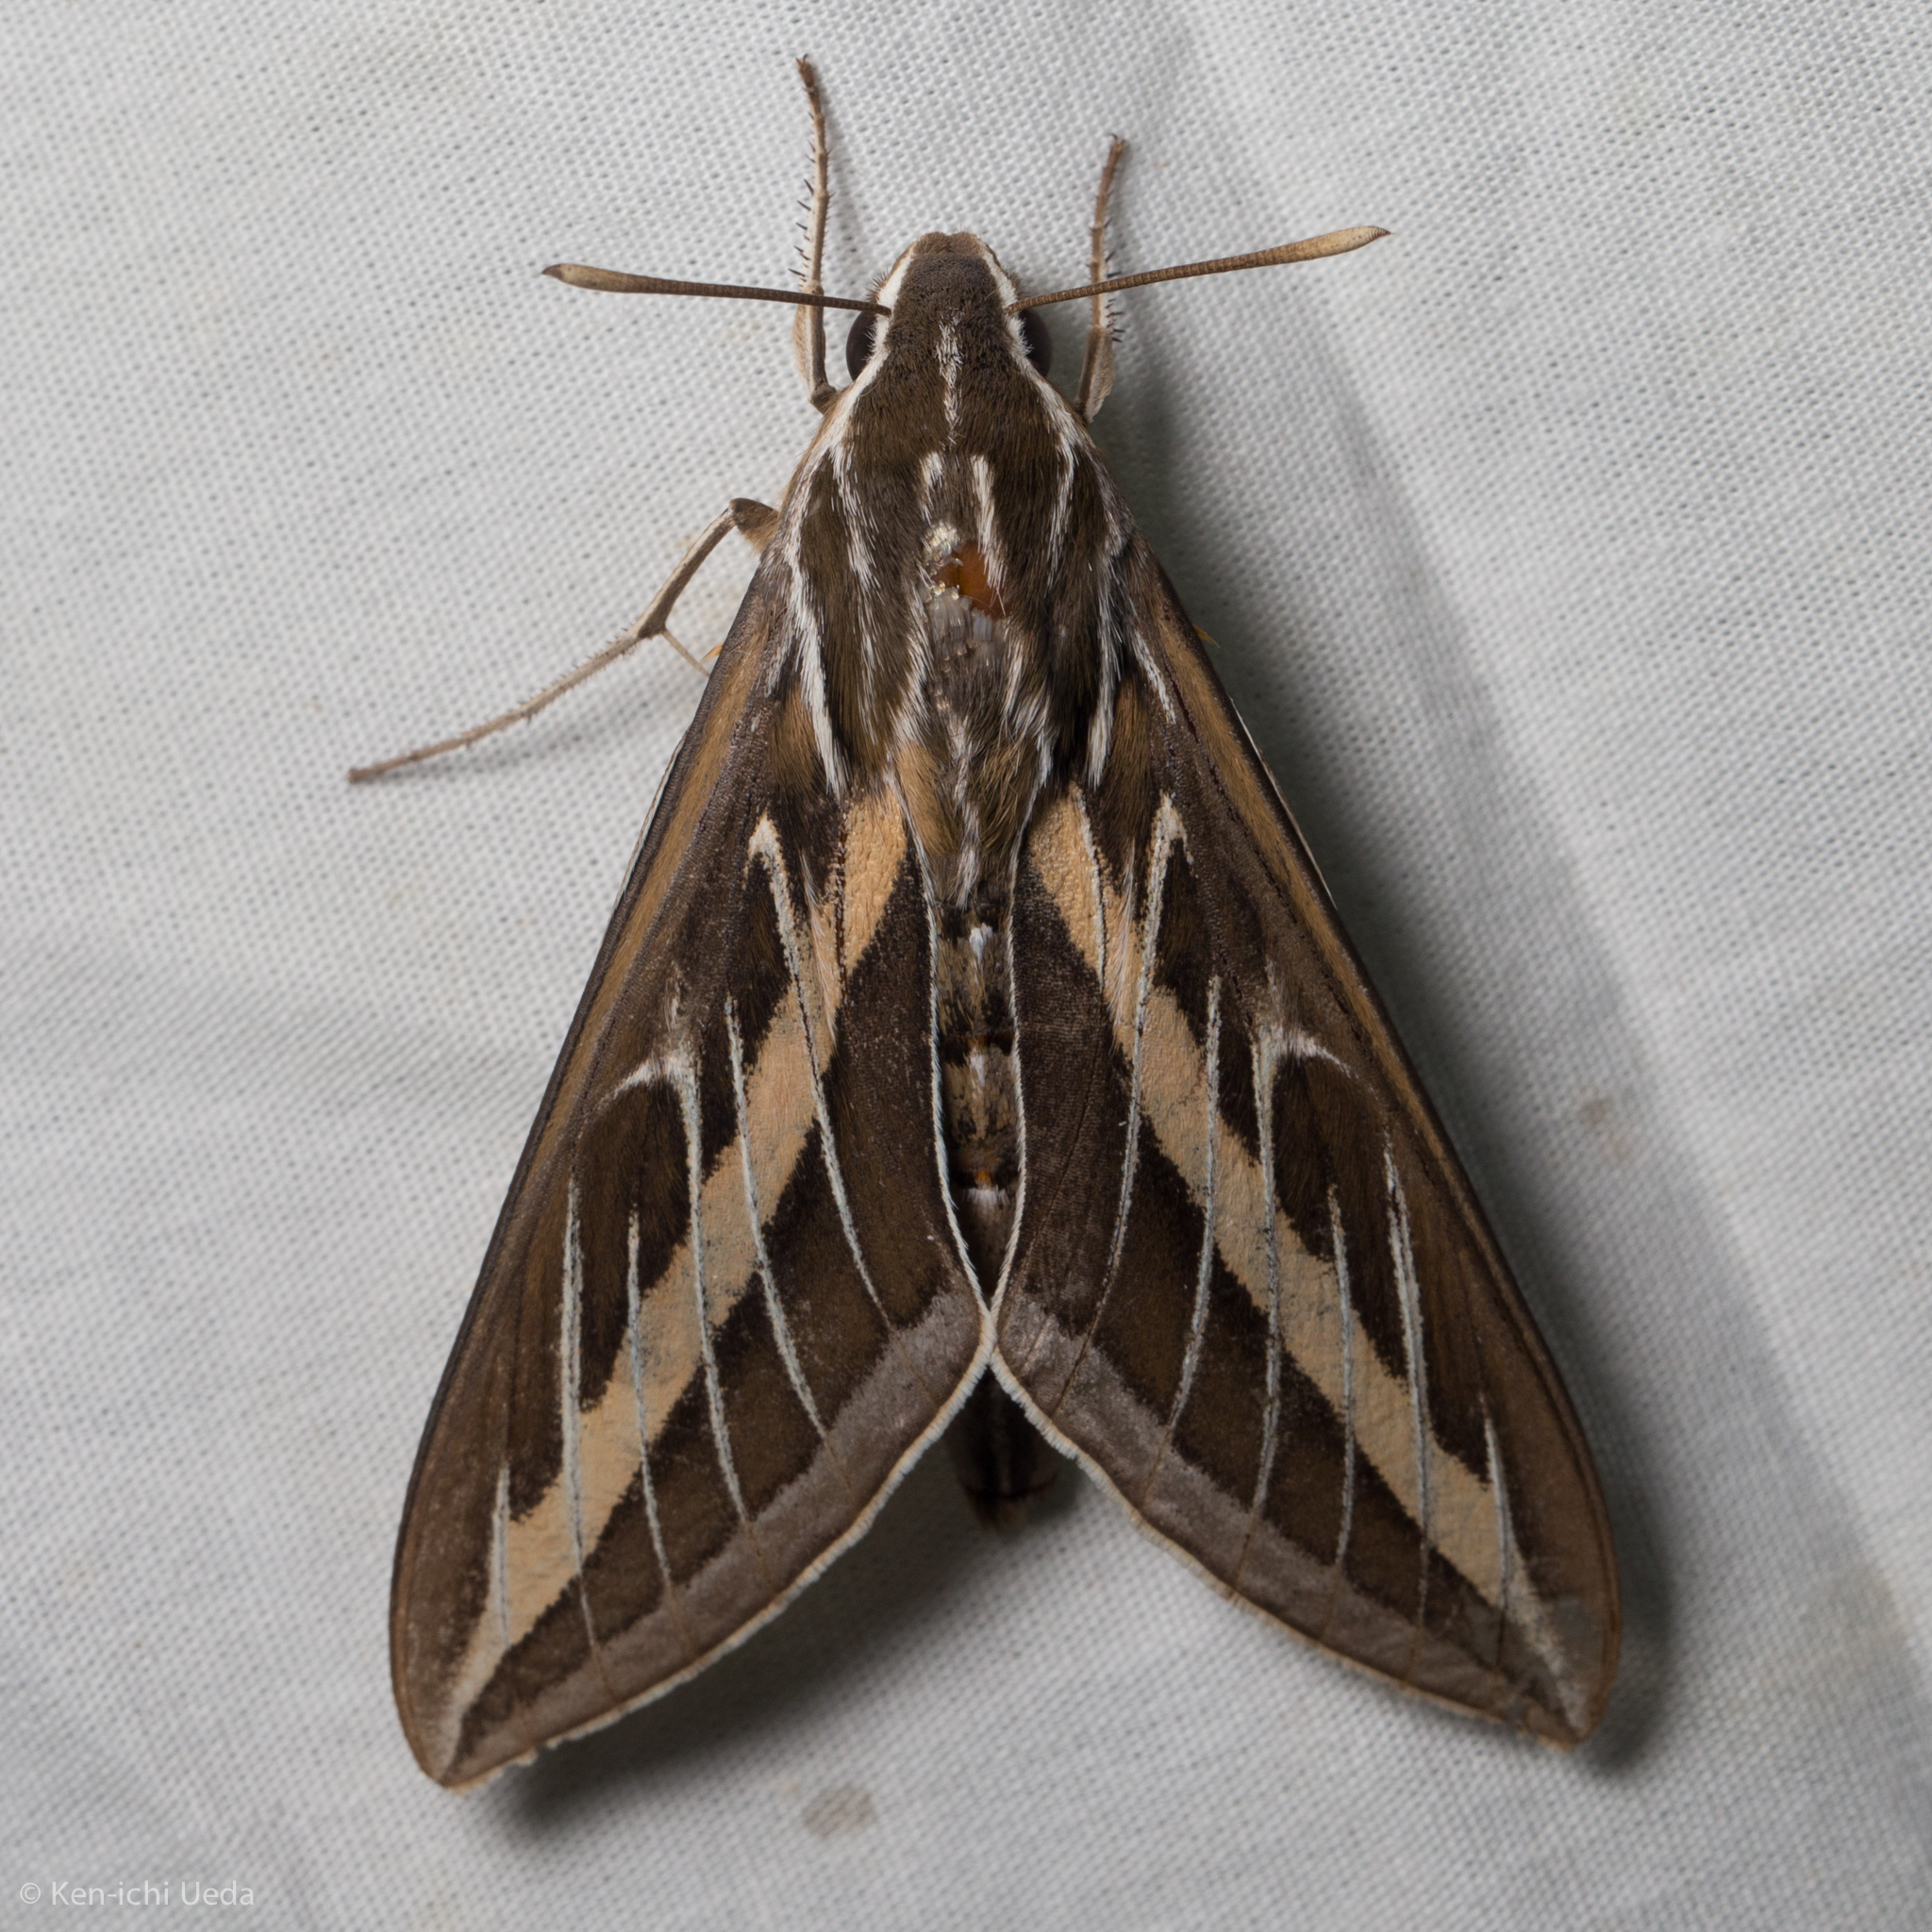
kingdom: Animalia
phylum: Arthropoda
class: Insecta
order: Lepidoptera
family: Sphingidae
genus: Hyles
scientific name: Hyles lineata
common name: White-lined sphinx
